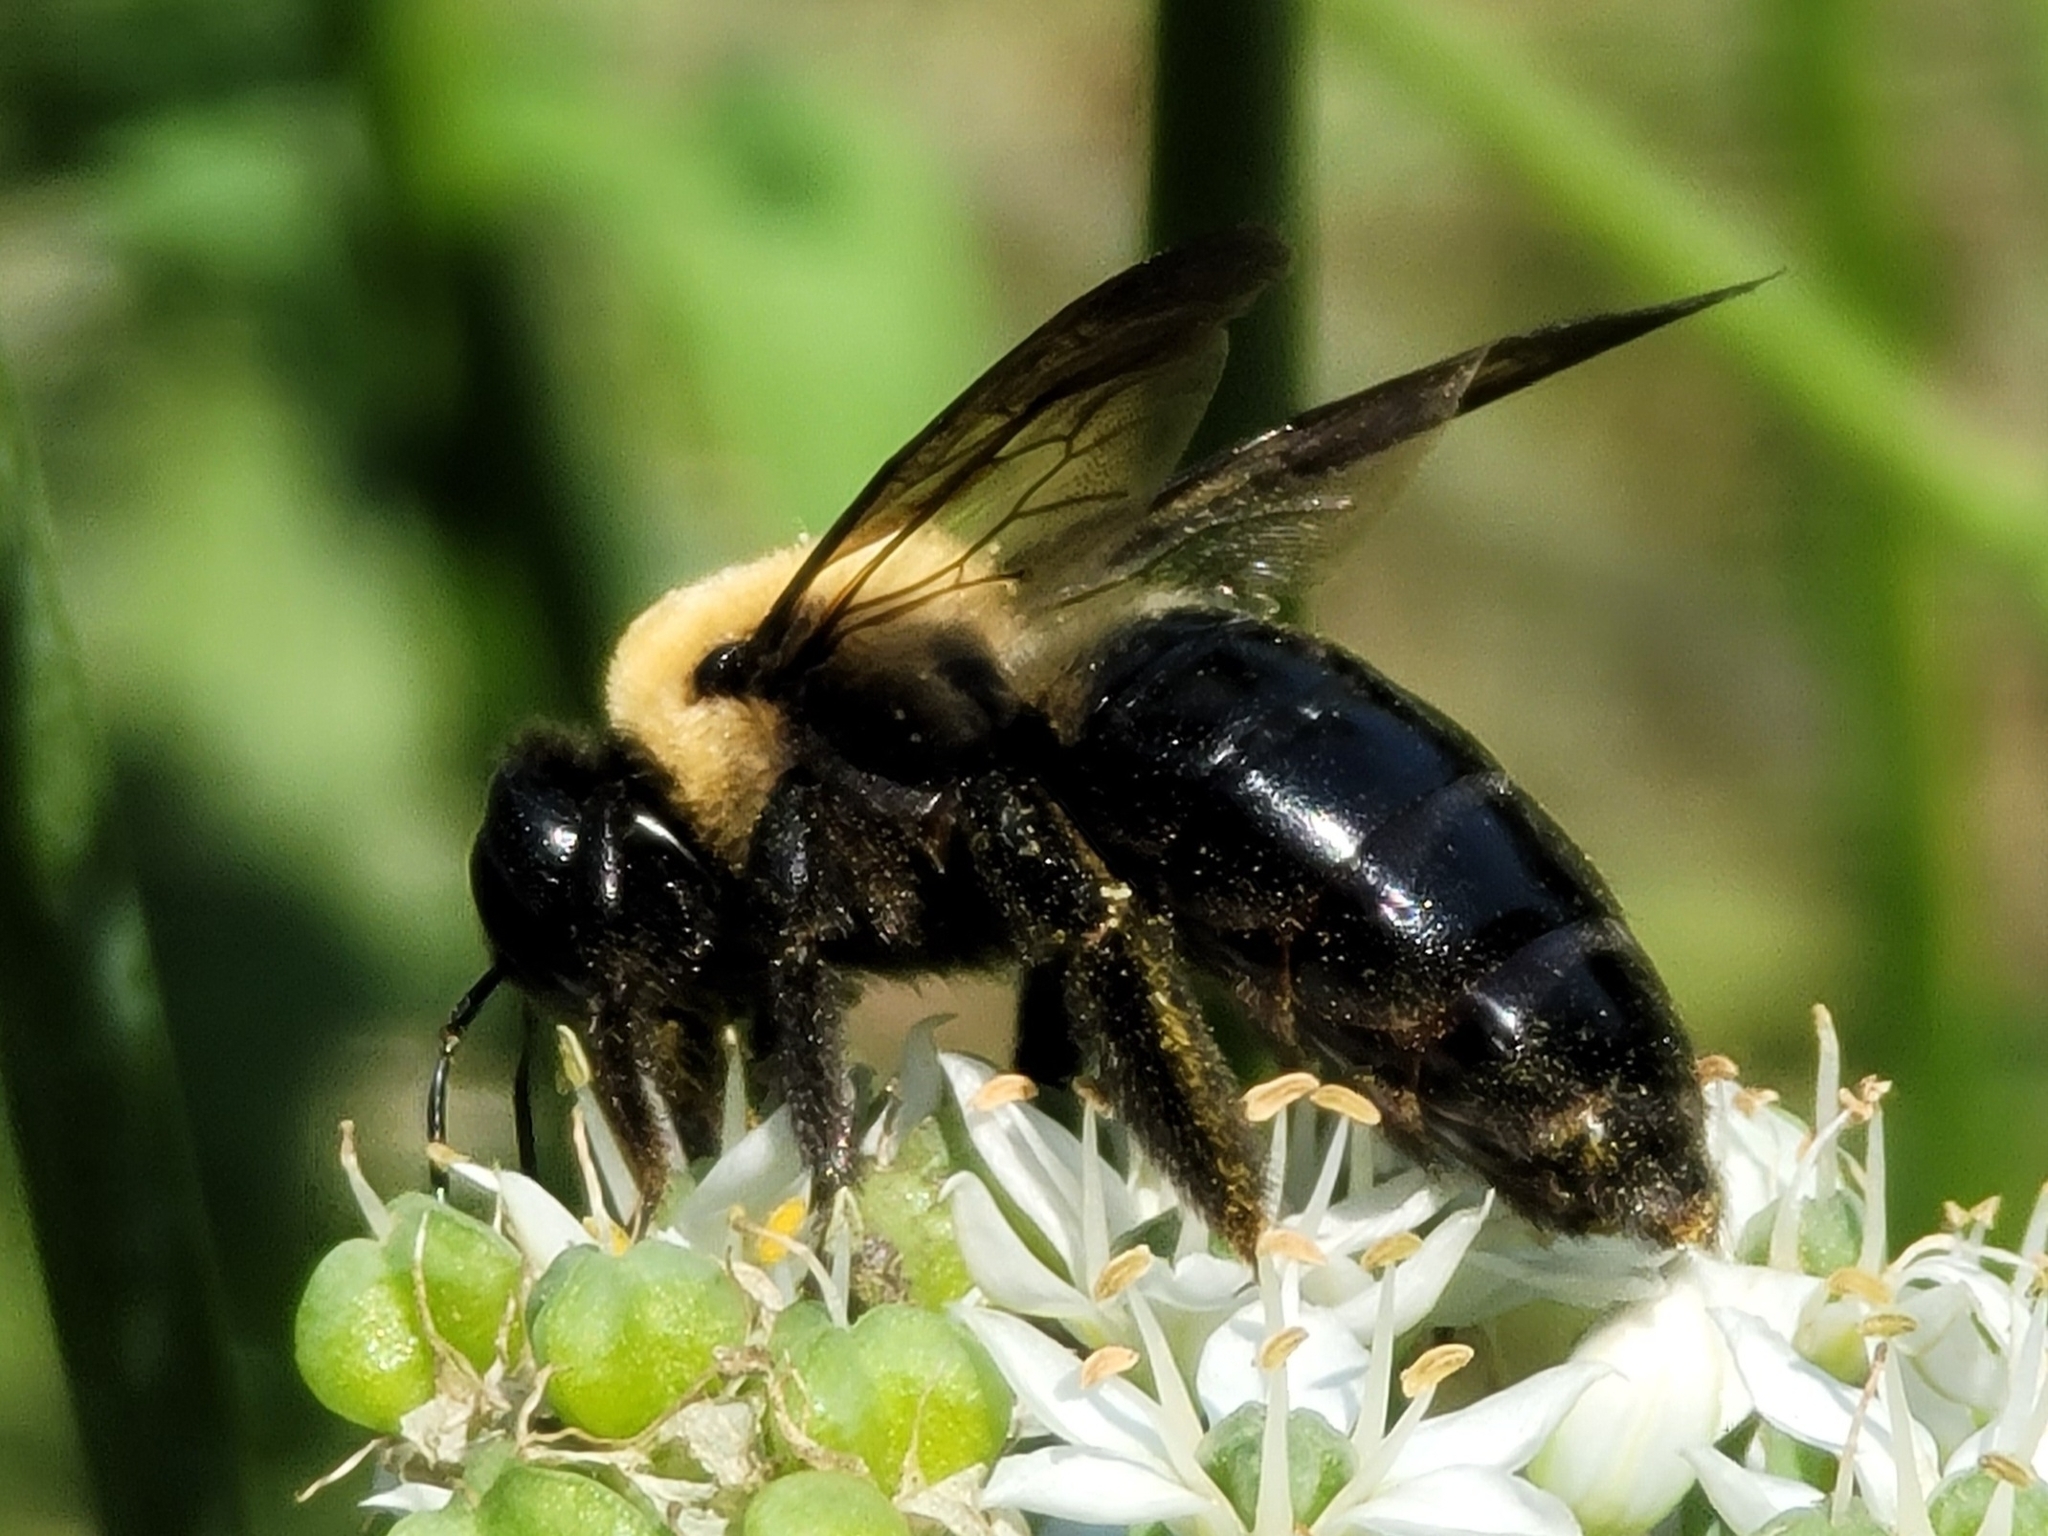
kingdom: Animalia
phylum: Arthropoda
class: Insecta
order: Hymenoptera
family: Apidae
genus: Xylocopa
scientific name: Xylocopa virginica
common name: Carpenter bee
